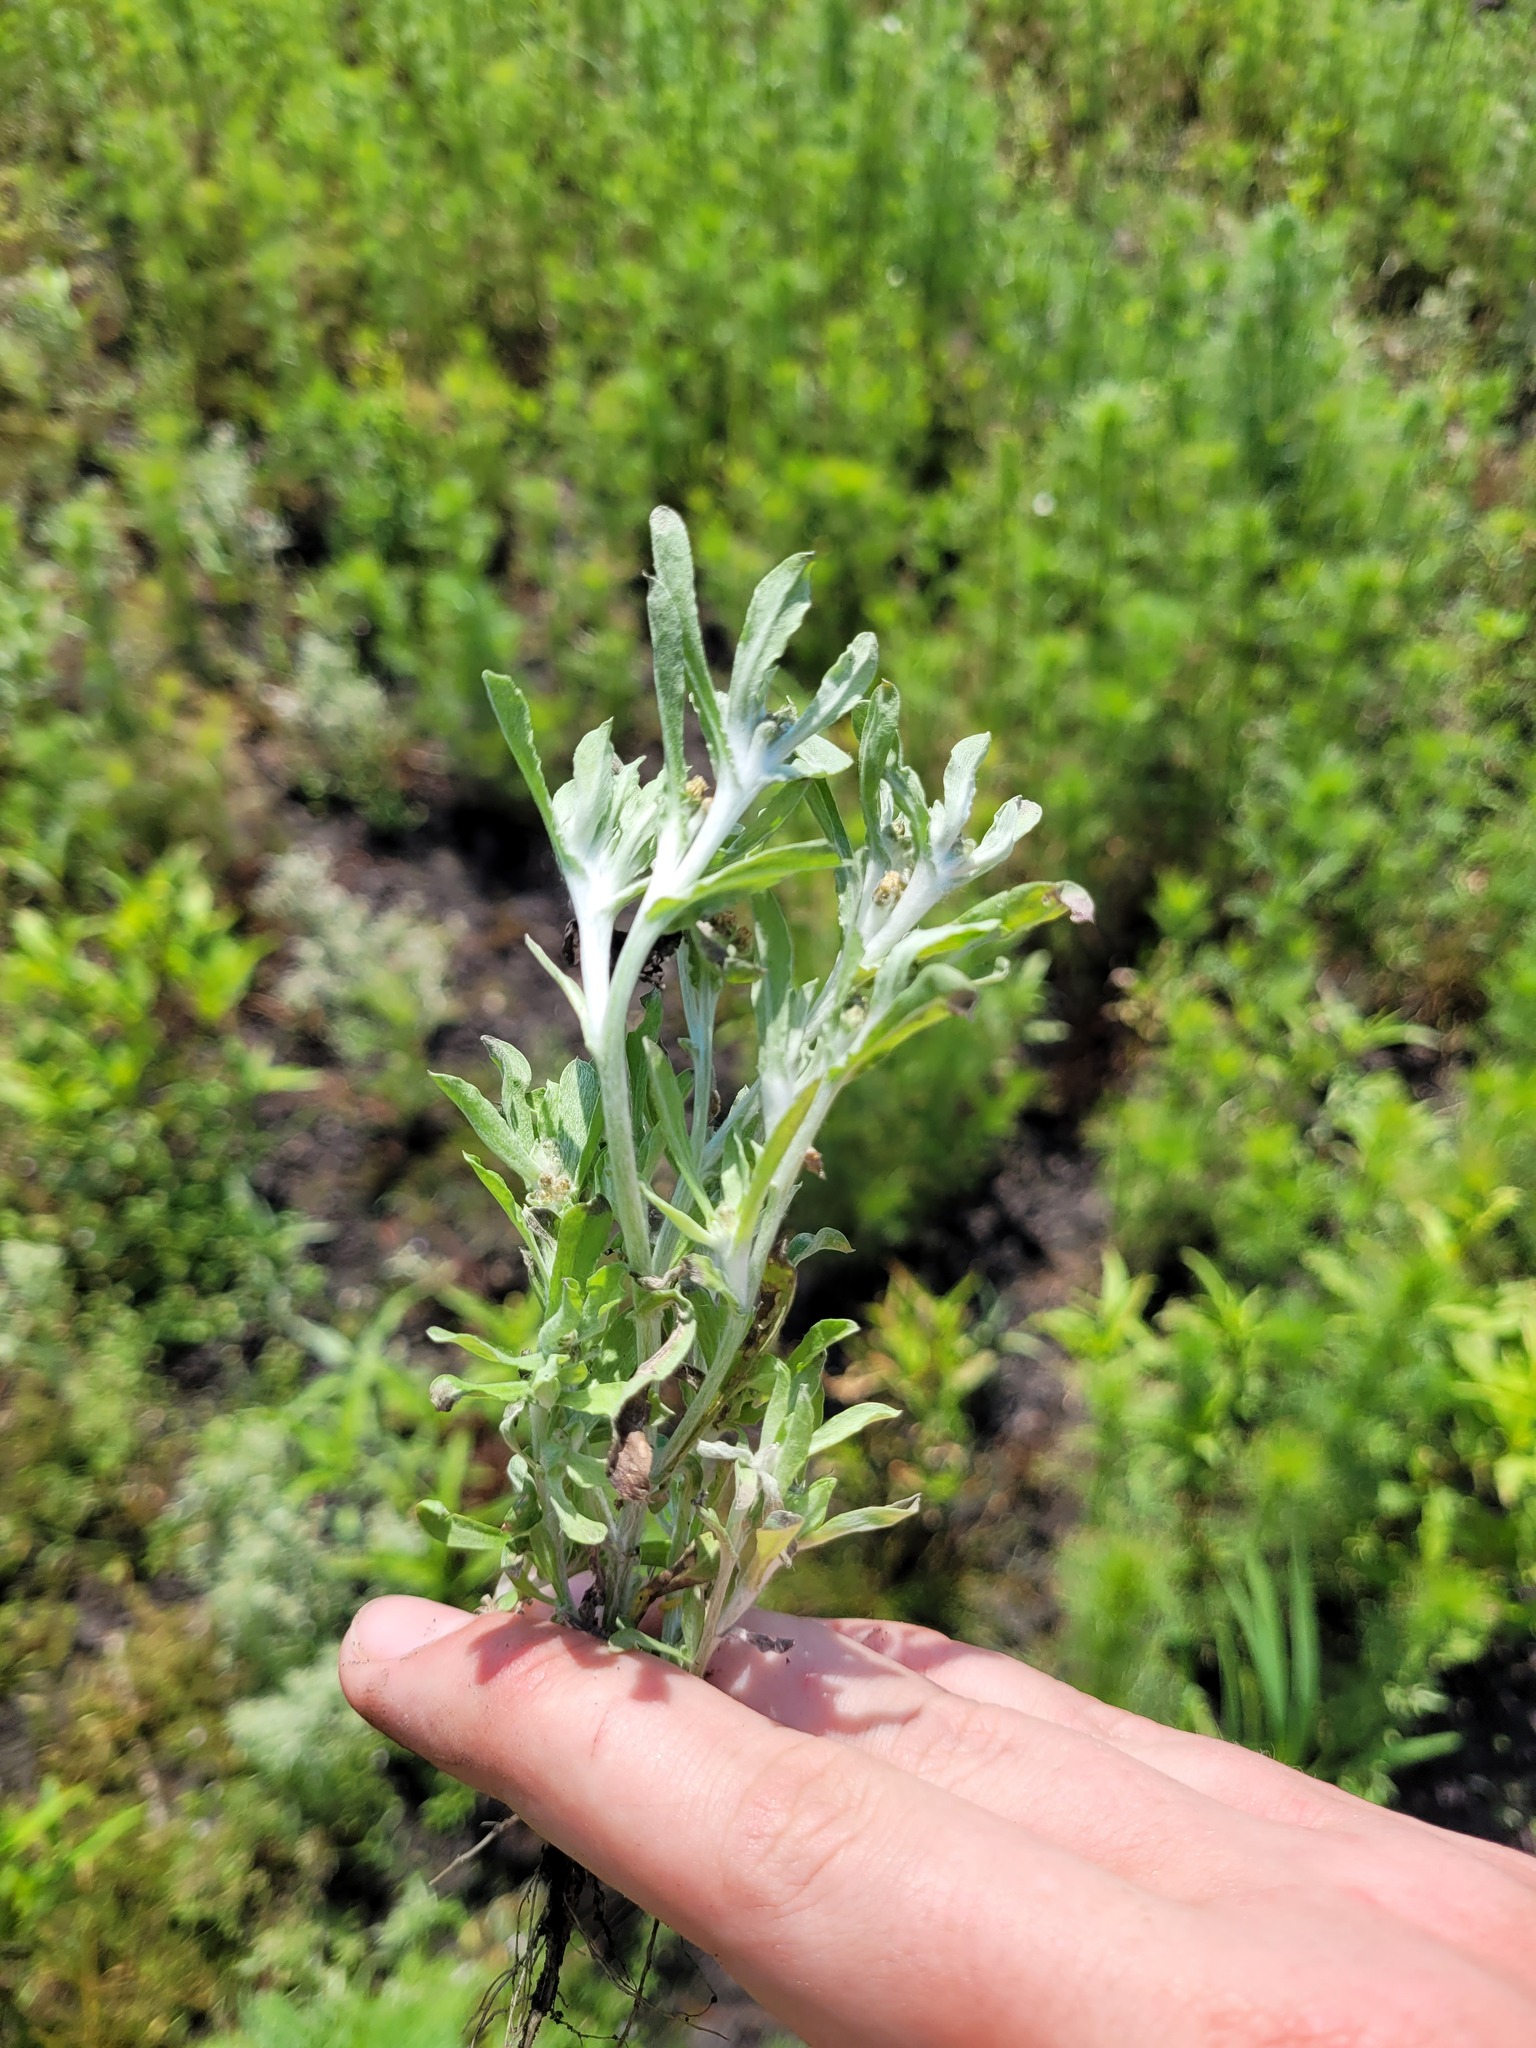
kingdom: Plantae
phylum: Tracheophyta
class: Magnoliopsida
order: Asterales
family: Asteraceae
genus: Gnaphalium
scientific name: Gnaphalium rossicum
